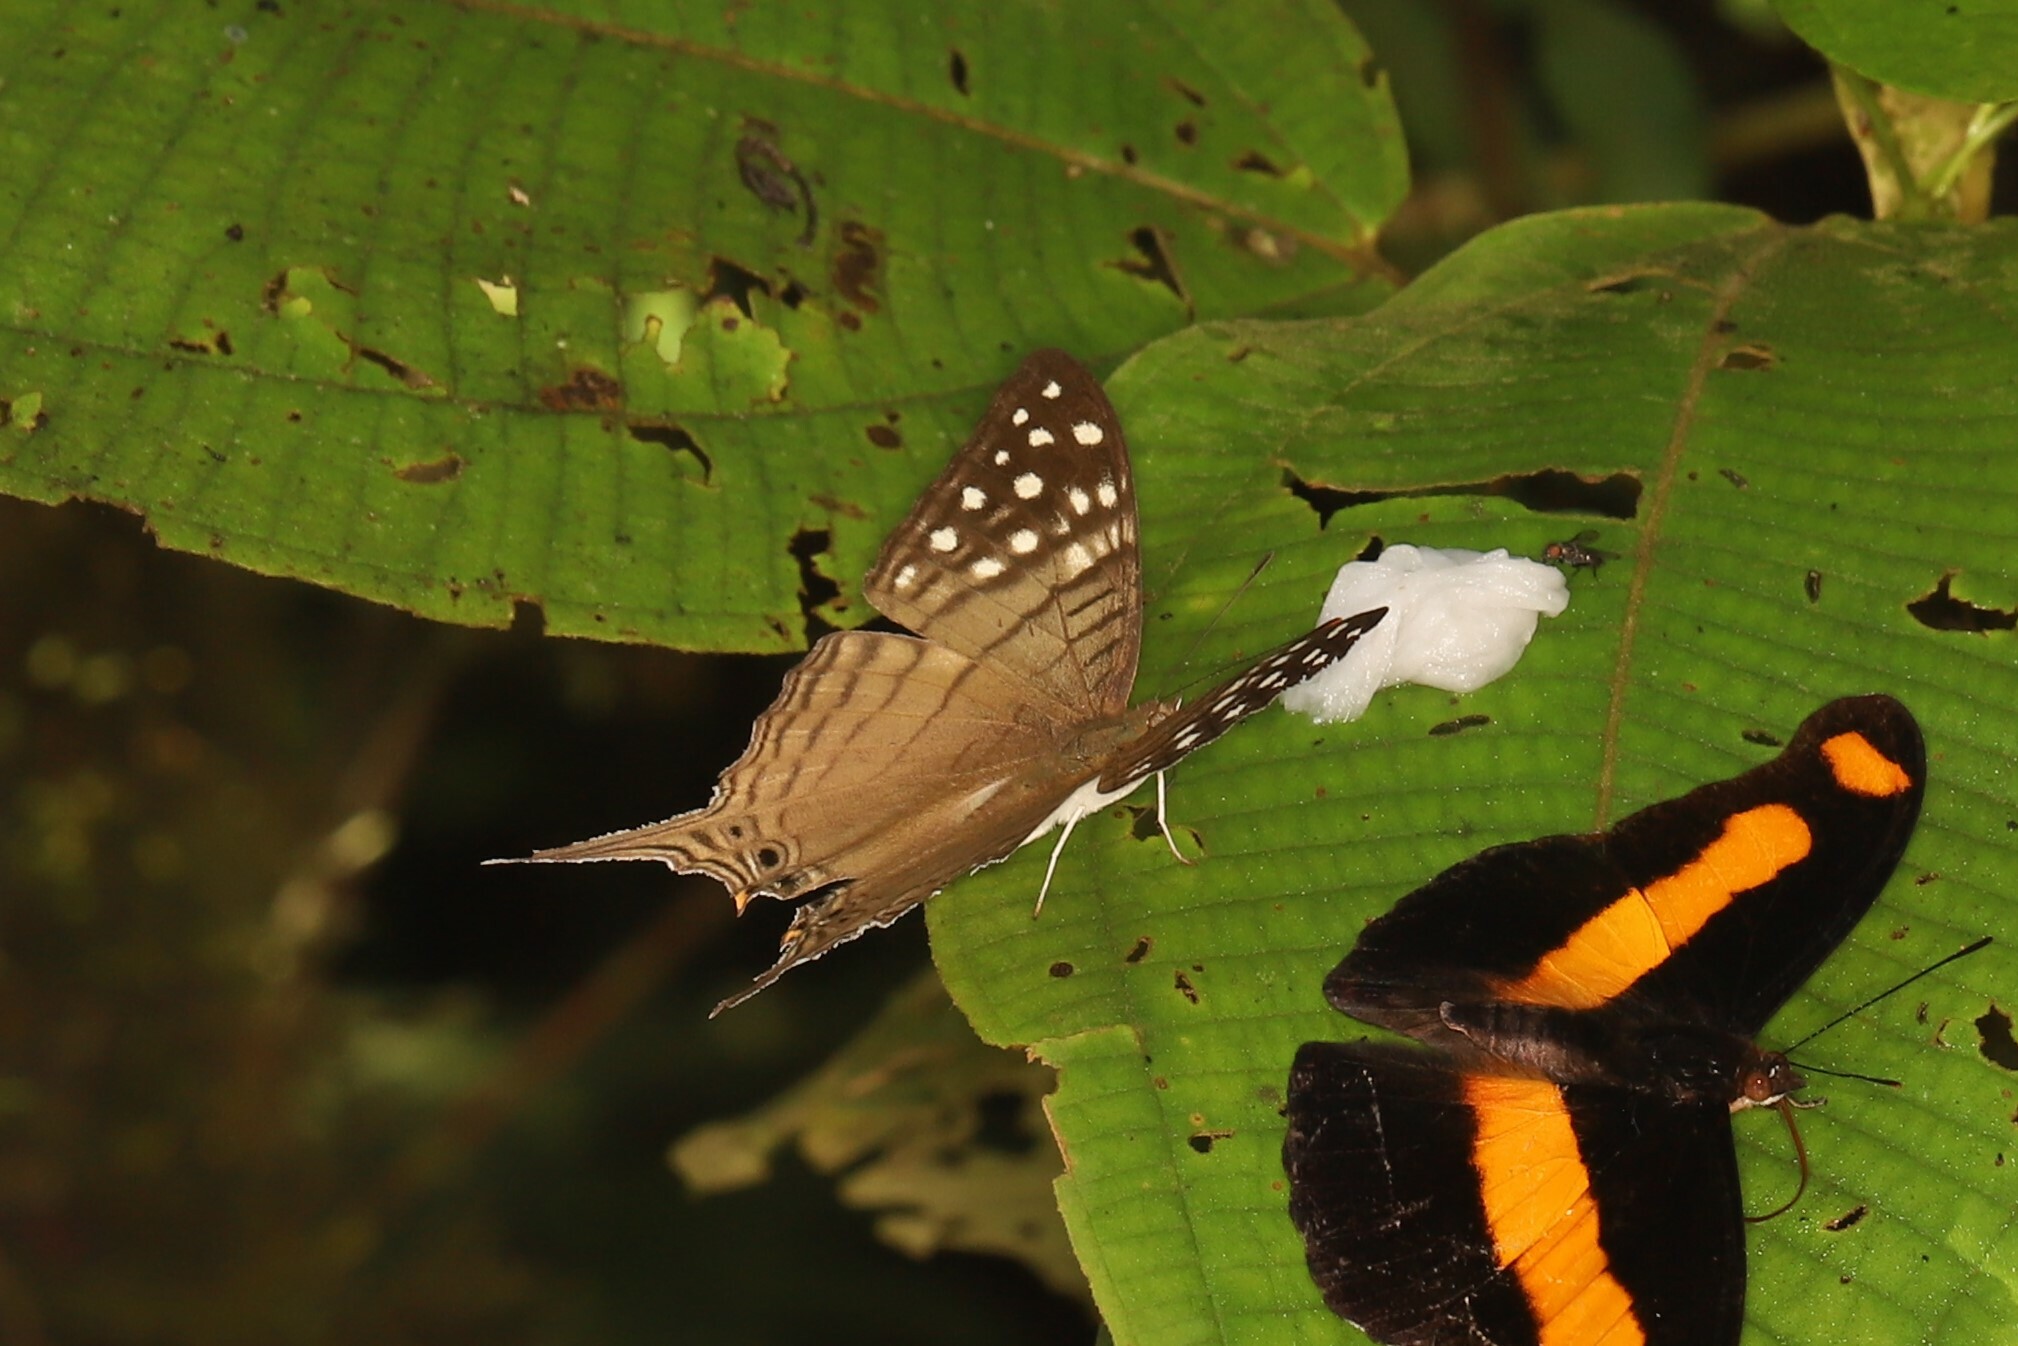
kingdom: Animalia
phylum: Arthropoda
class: Insecta
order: Lepidoptera
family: Nymphalidae
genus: Marpesia
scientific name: Marpesia merops
